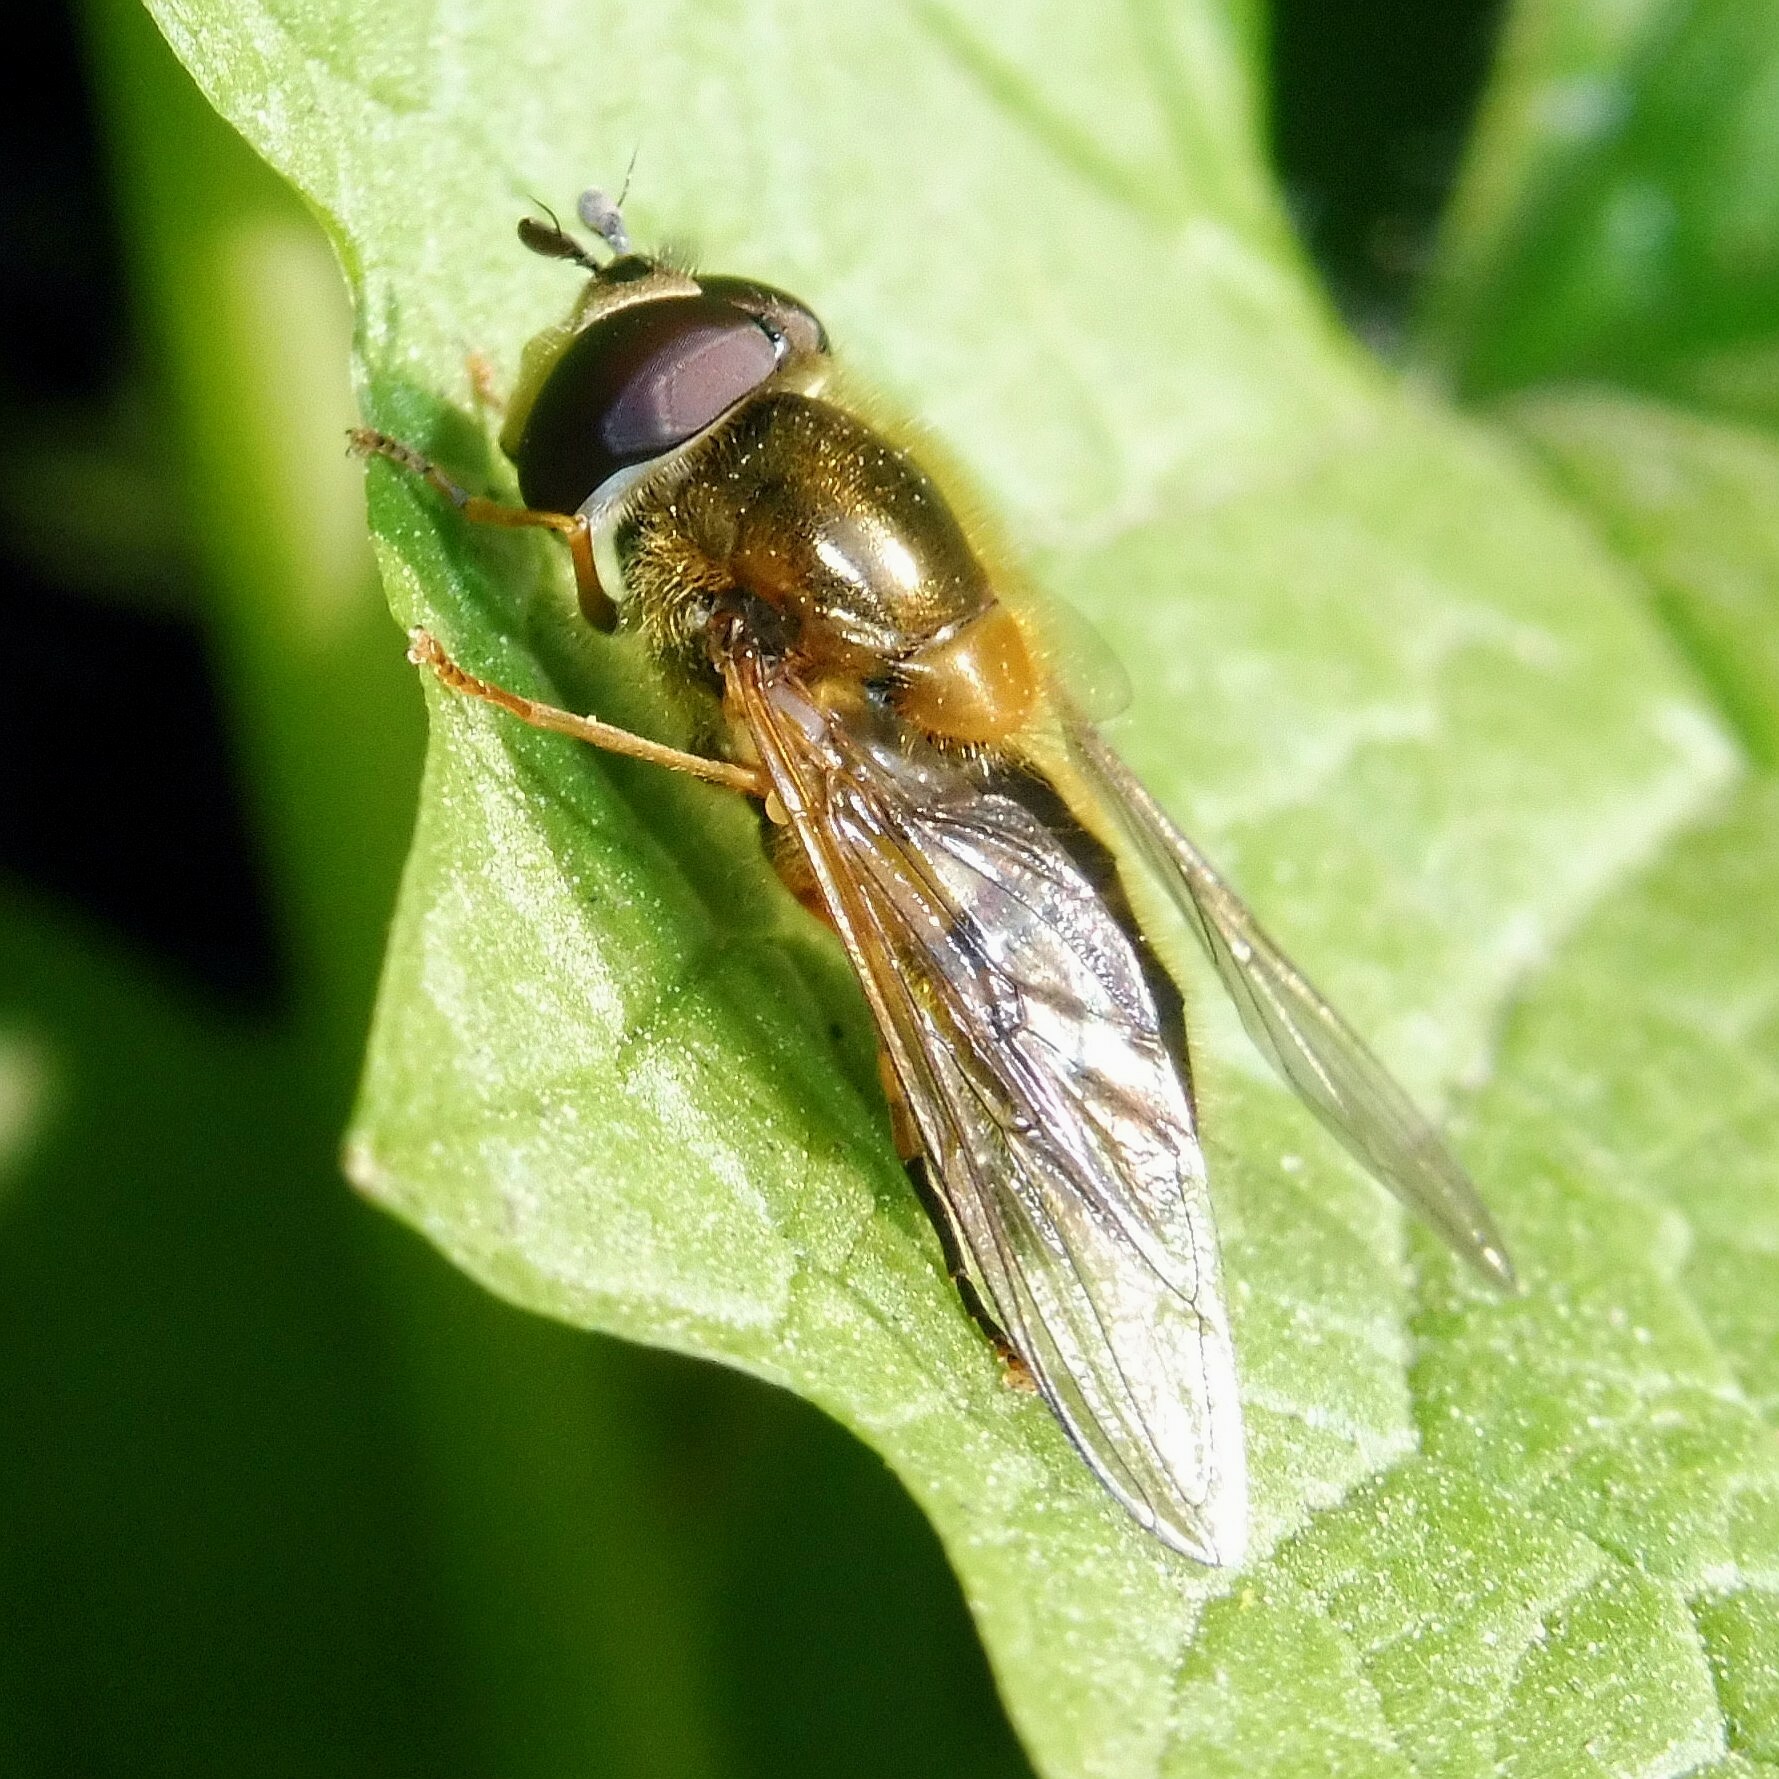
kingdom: Animalia
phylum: Arthropoda
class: Insecta
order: Diptera
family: Syrphidae
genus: Epistrophe
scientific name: Epistrophe eligans
